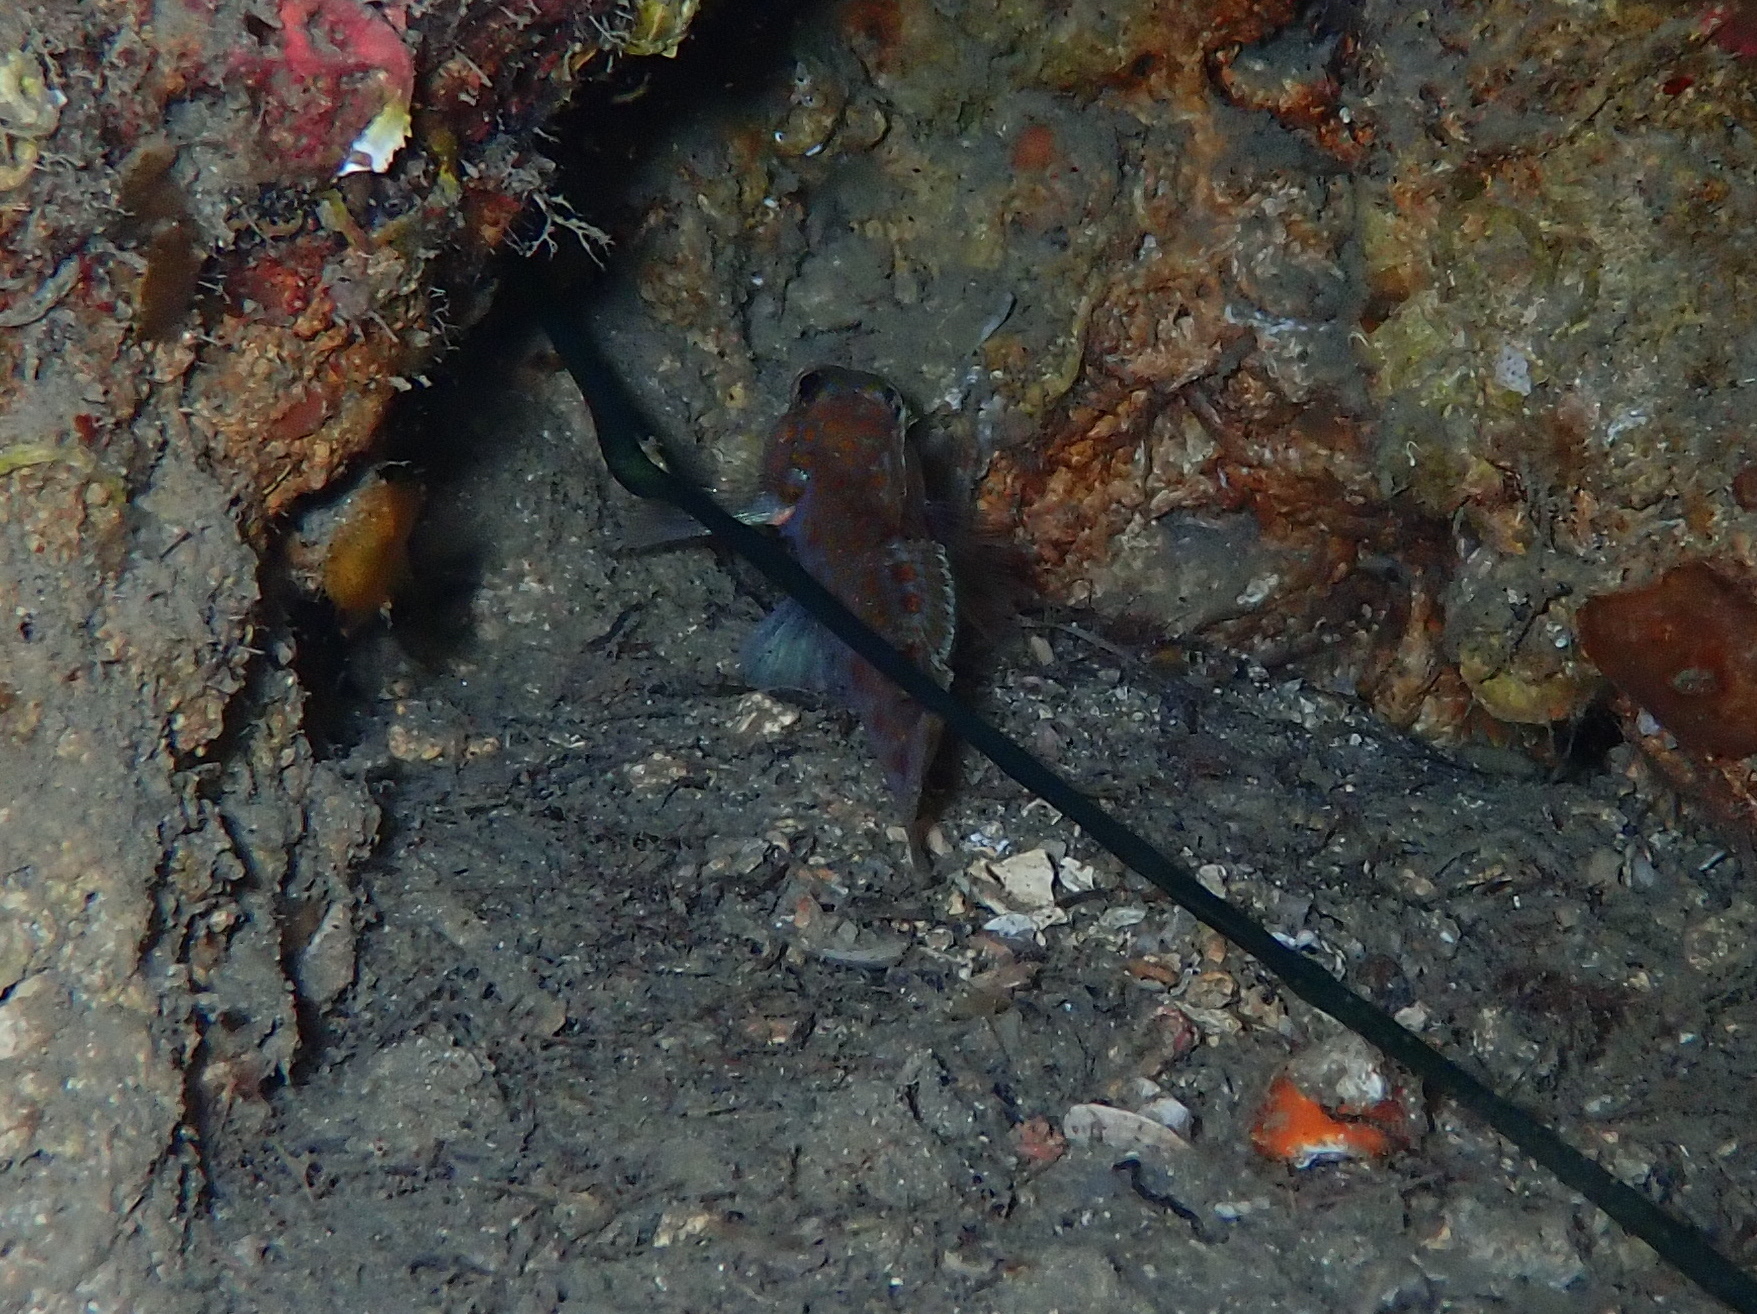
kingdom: Animalia
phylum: Chordata
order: Perciformes
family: Gobiidae
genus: Thorogobius
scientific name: Thorogobius macrolepis
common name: Large-scaled goby
